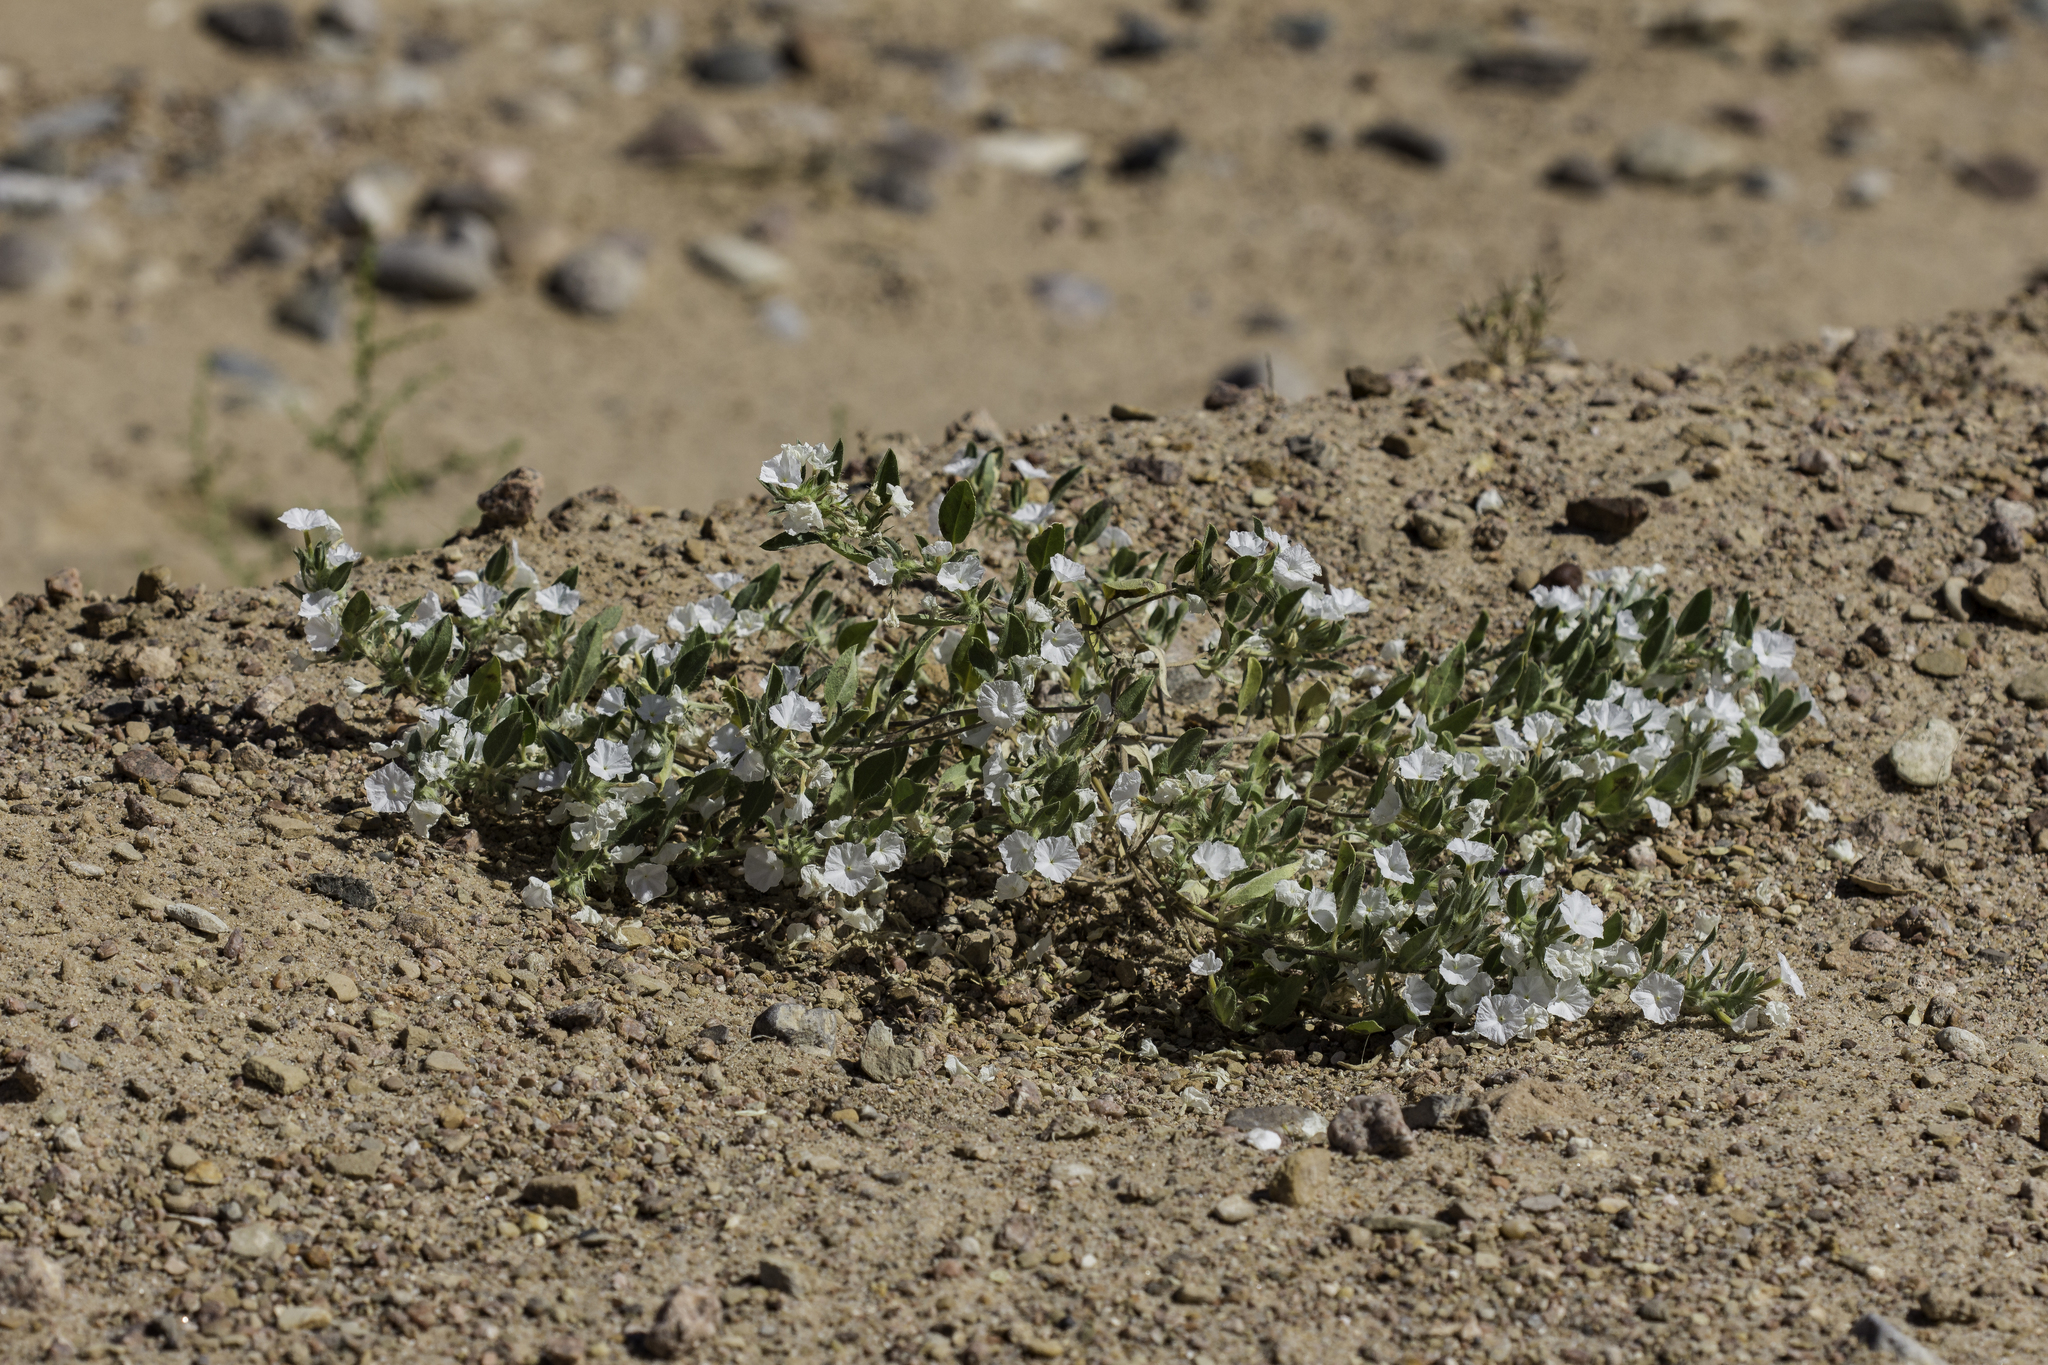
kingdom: Plantae
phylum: Tracheophyta
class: Magnoliopsida
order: Boraginales
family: Heliotropiaceae
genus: Euploca
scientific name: Euploca convolvulacea
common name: Bindweed heliotrope
